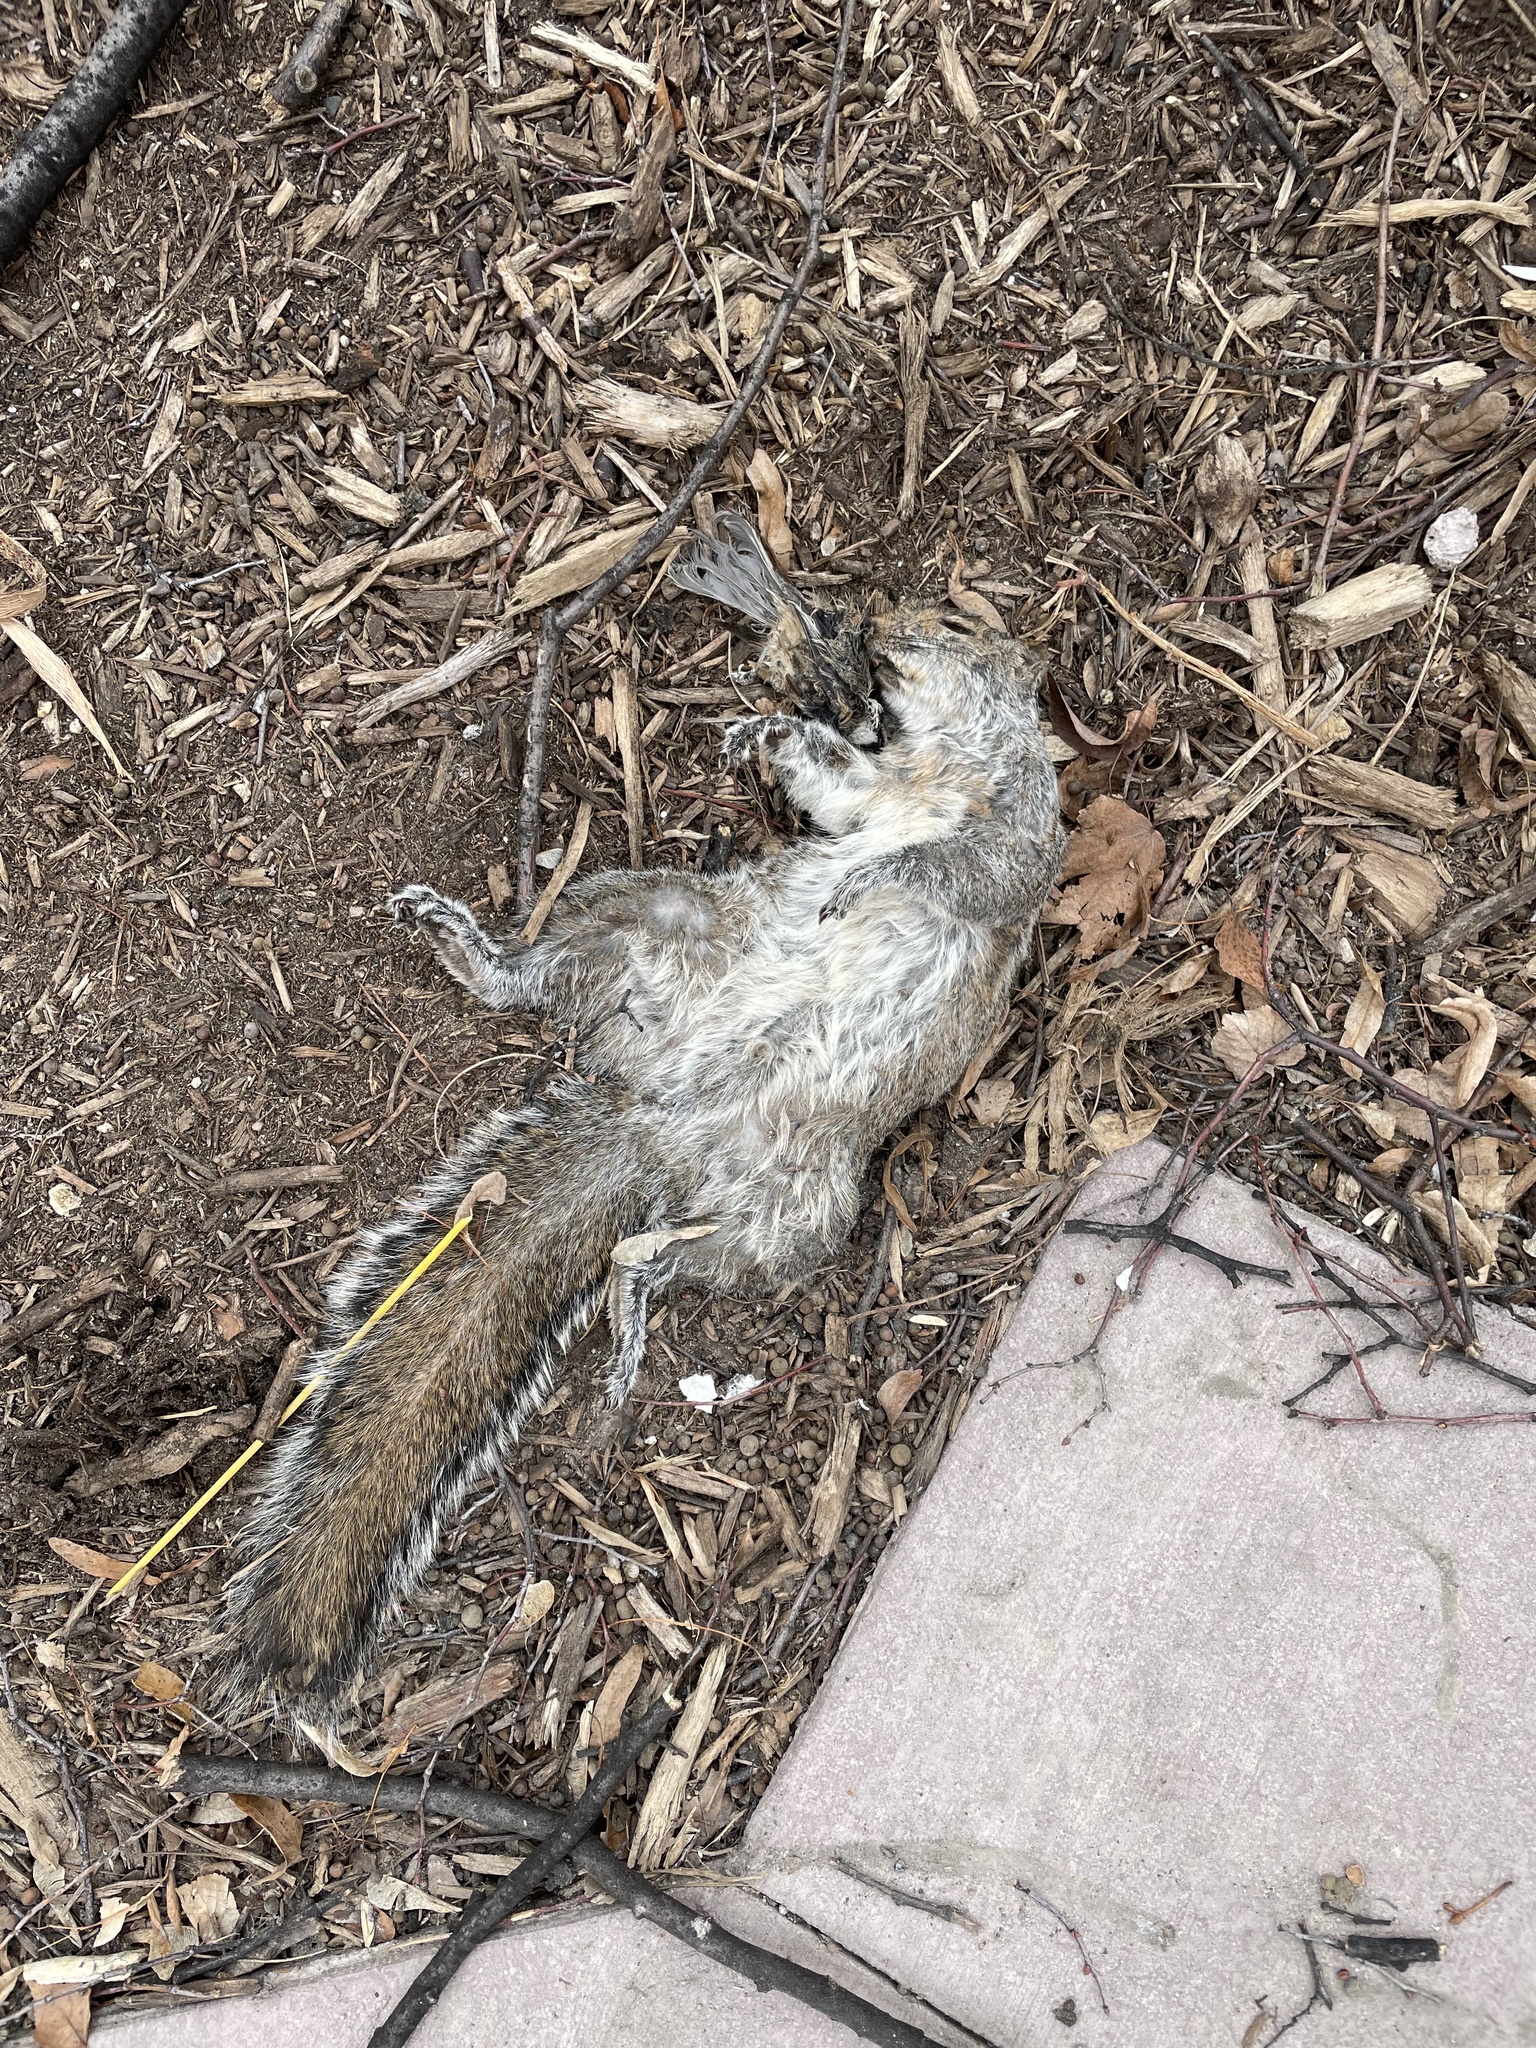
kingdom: Animalia
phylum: Chordata
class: Mammalia
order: Rodentia
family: Sciuridae
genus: Sciurus
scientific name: Sciurus carolinensis
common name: Eastern gray squirrel
